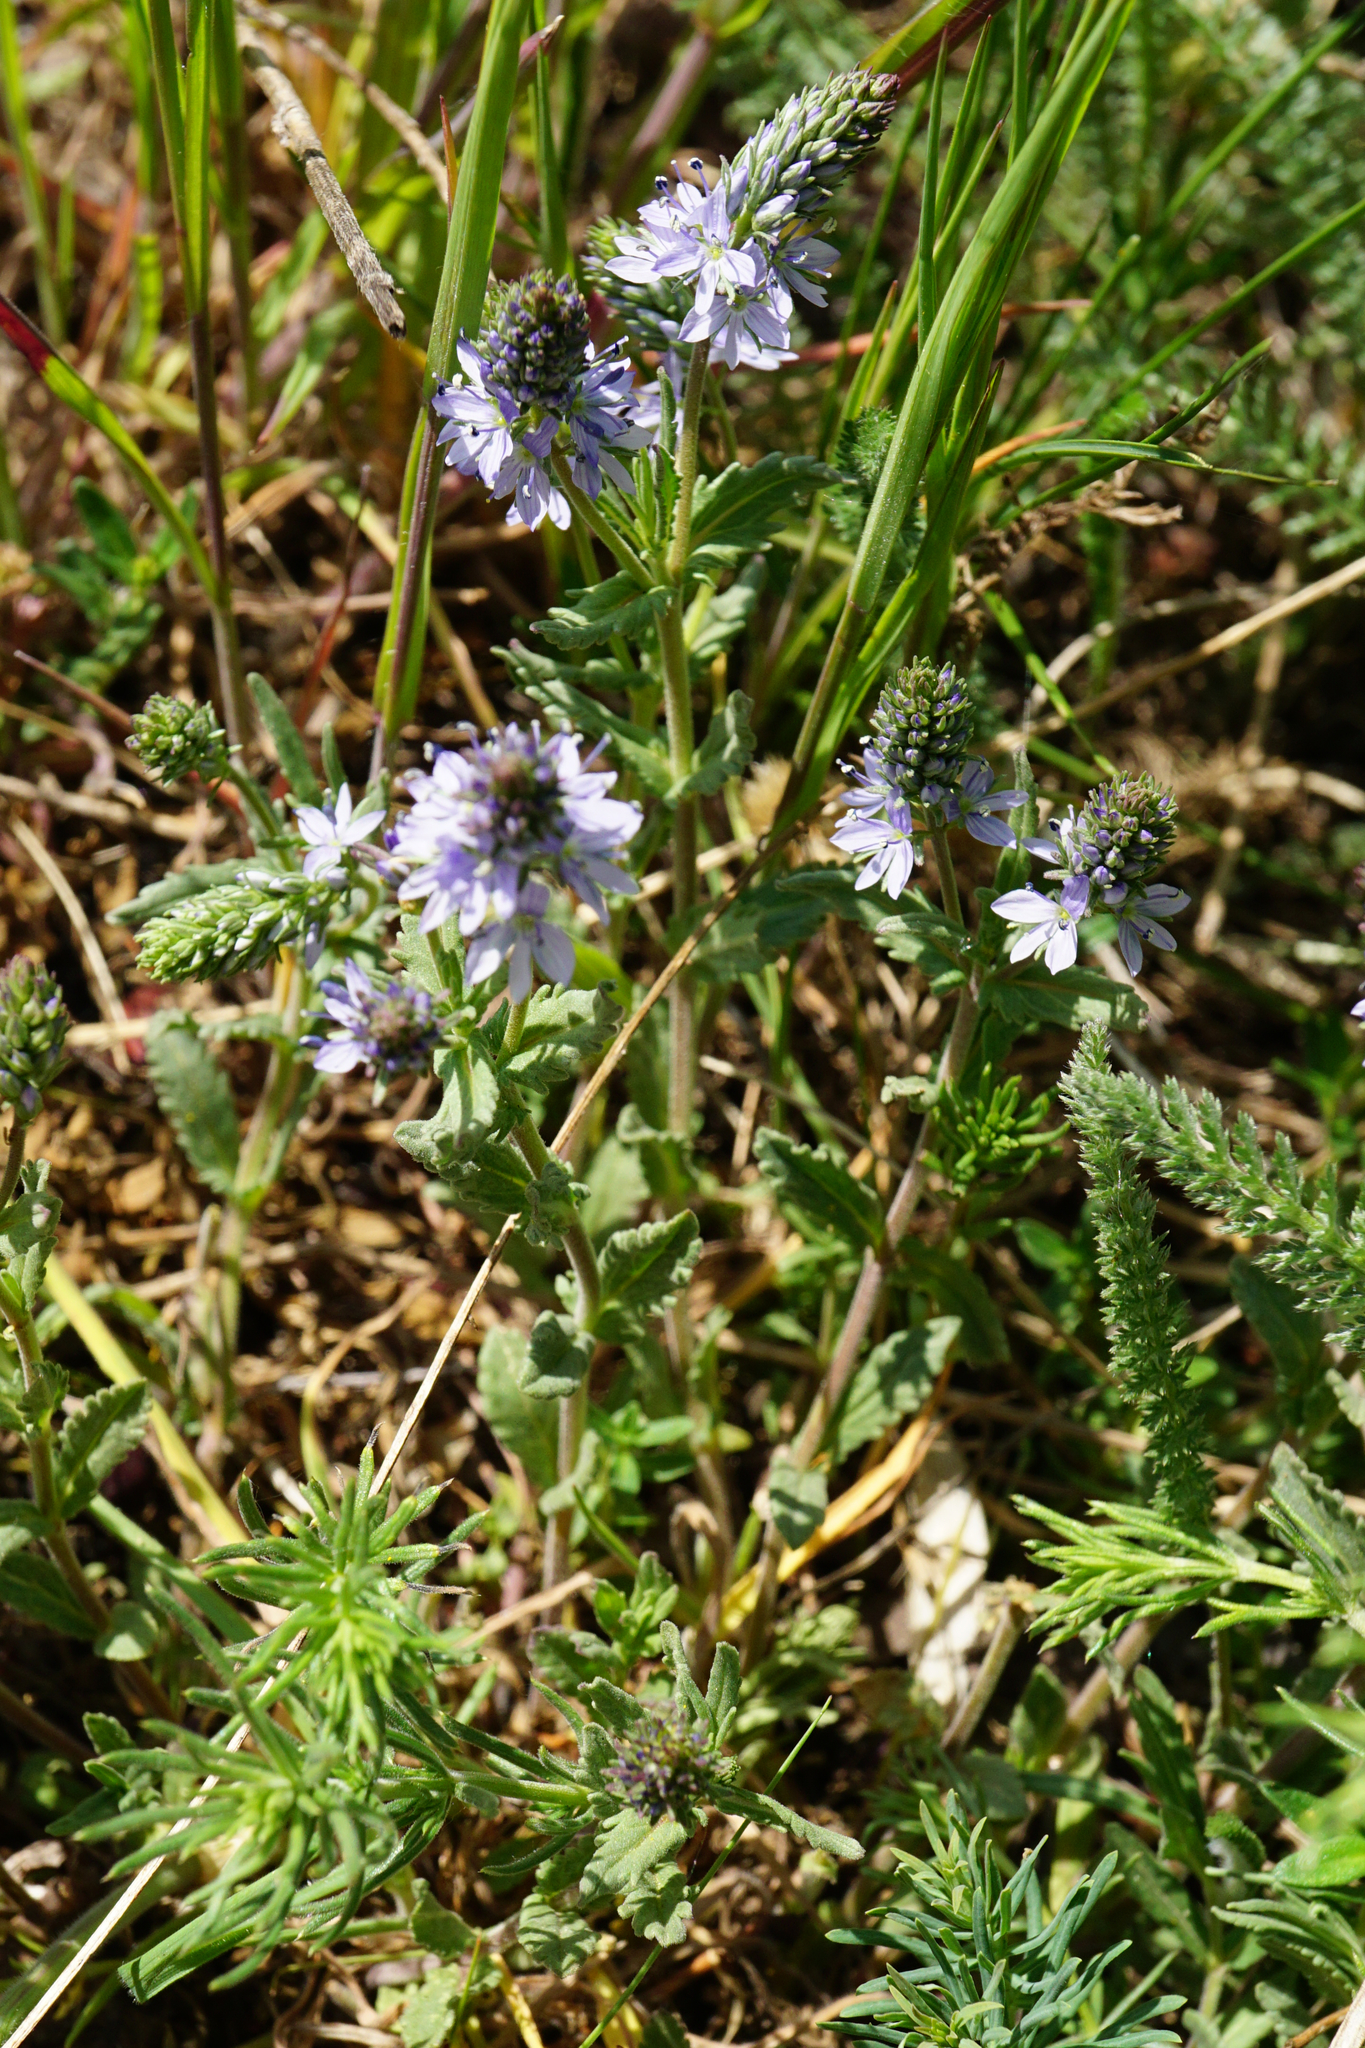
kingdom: Plantae
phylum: Tracheophyta
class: Magnoliopsida
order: Lamiales
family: Plantaginaceae
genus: Veronica
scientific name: Veronica prostrata
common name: Prostrate speedwell
